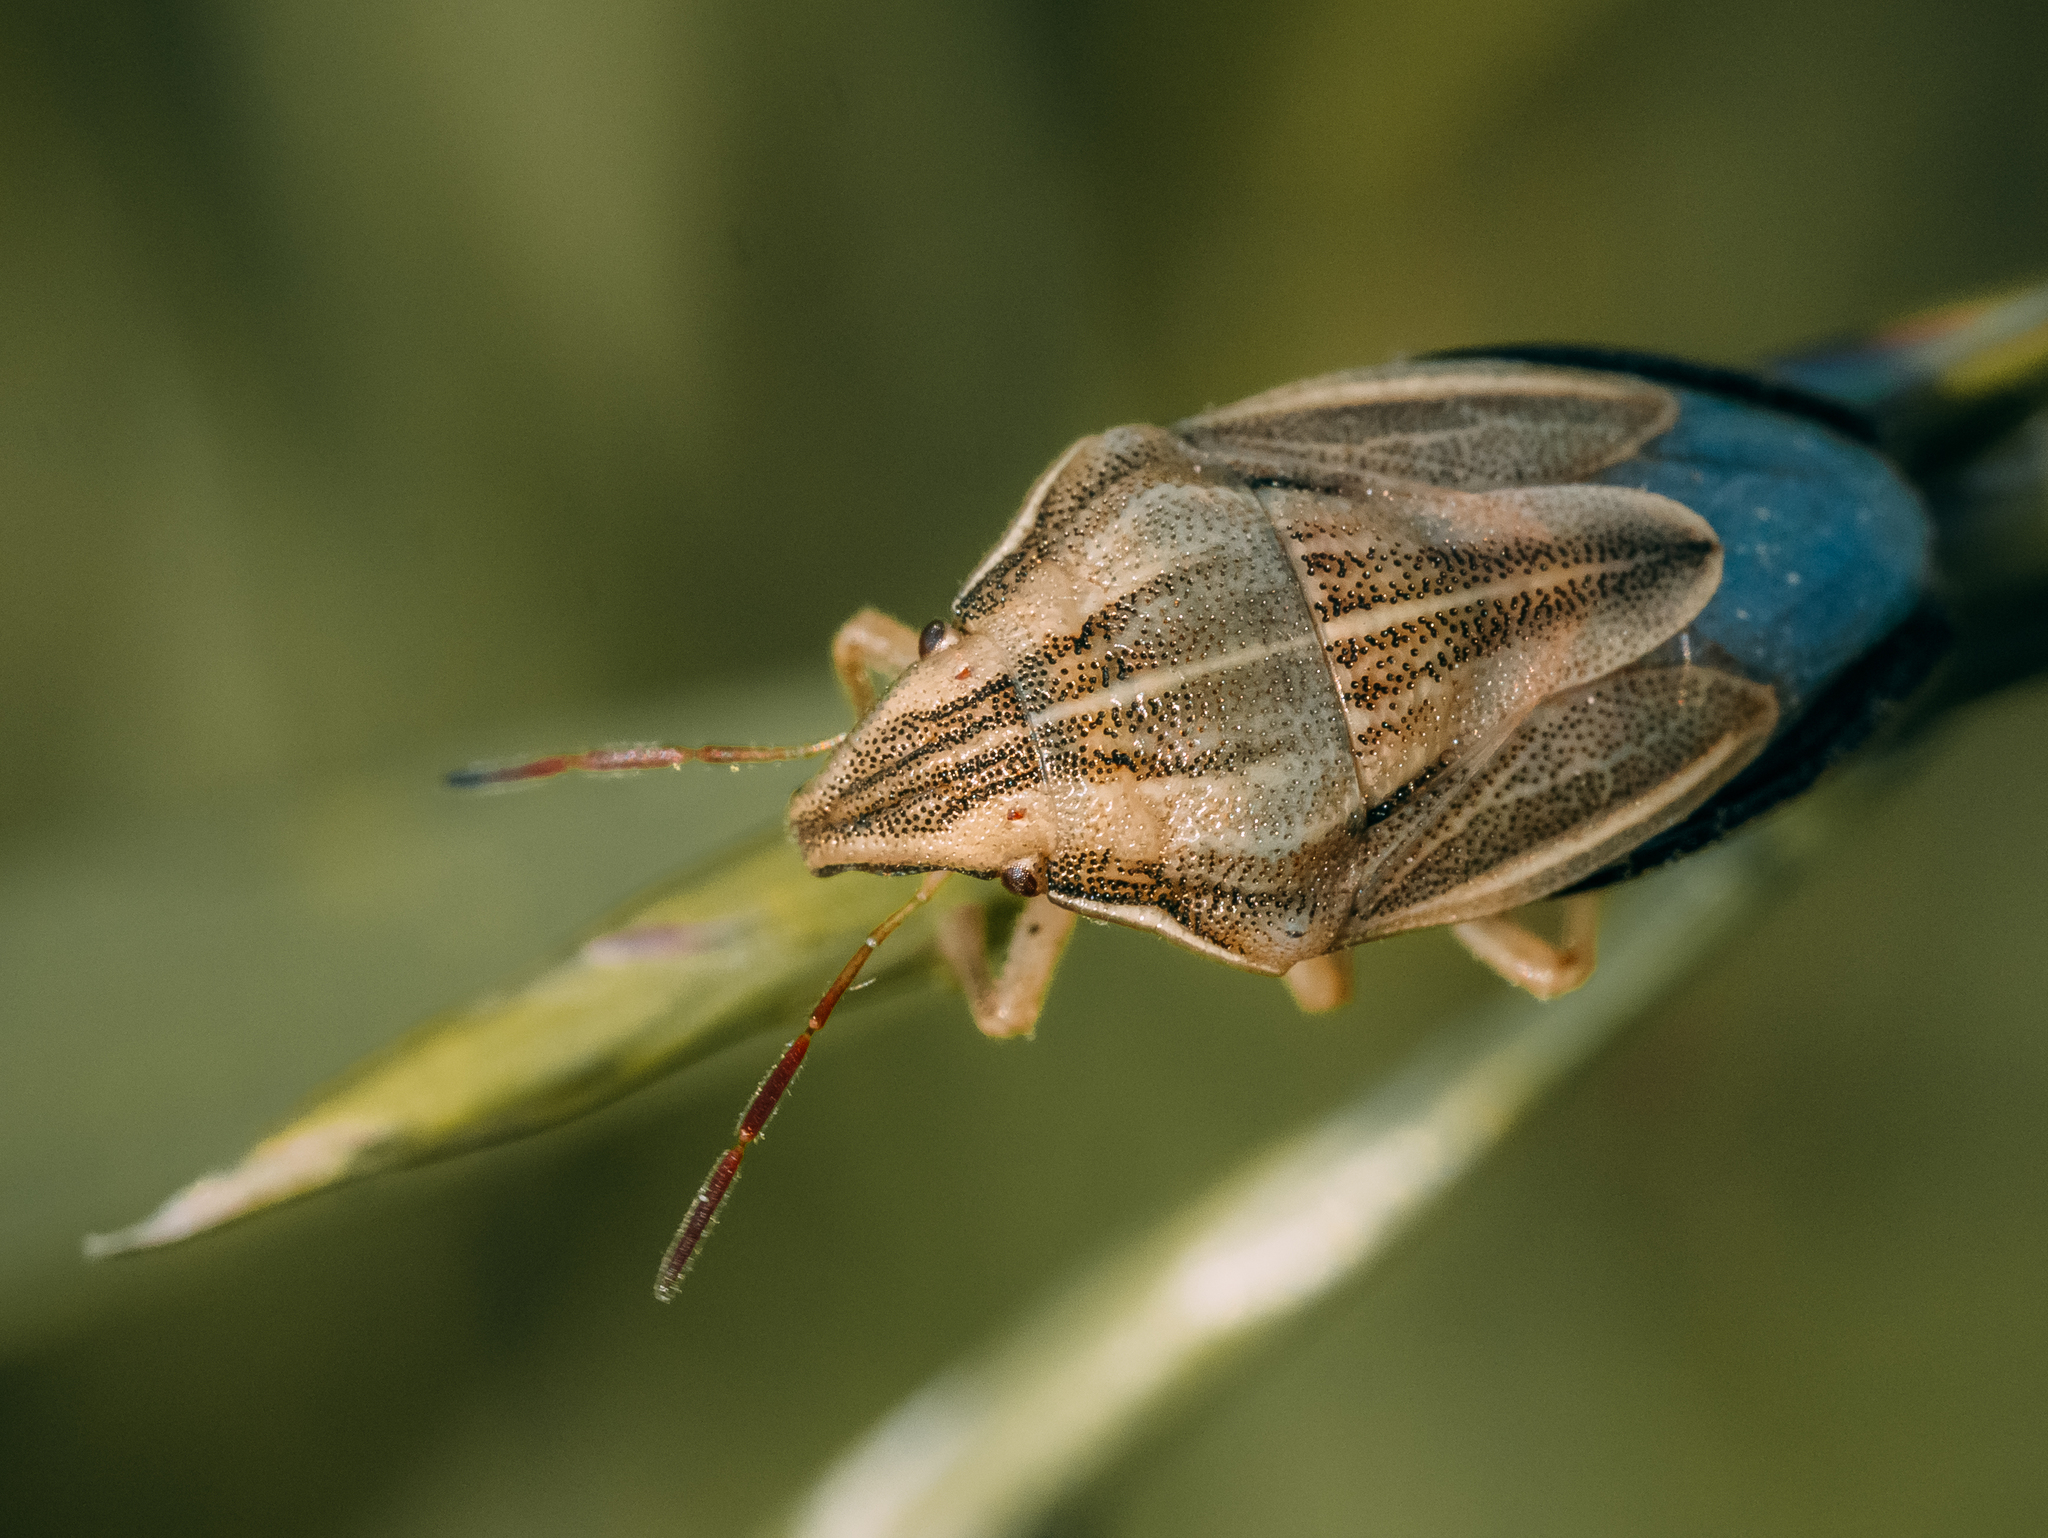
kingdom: Animalia
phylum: Arthropoda
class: Insecta
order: Hemiptera
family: Pentatomidae
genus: Aelia
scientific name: Aelia acuminata
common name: Bishop's mitre
